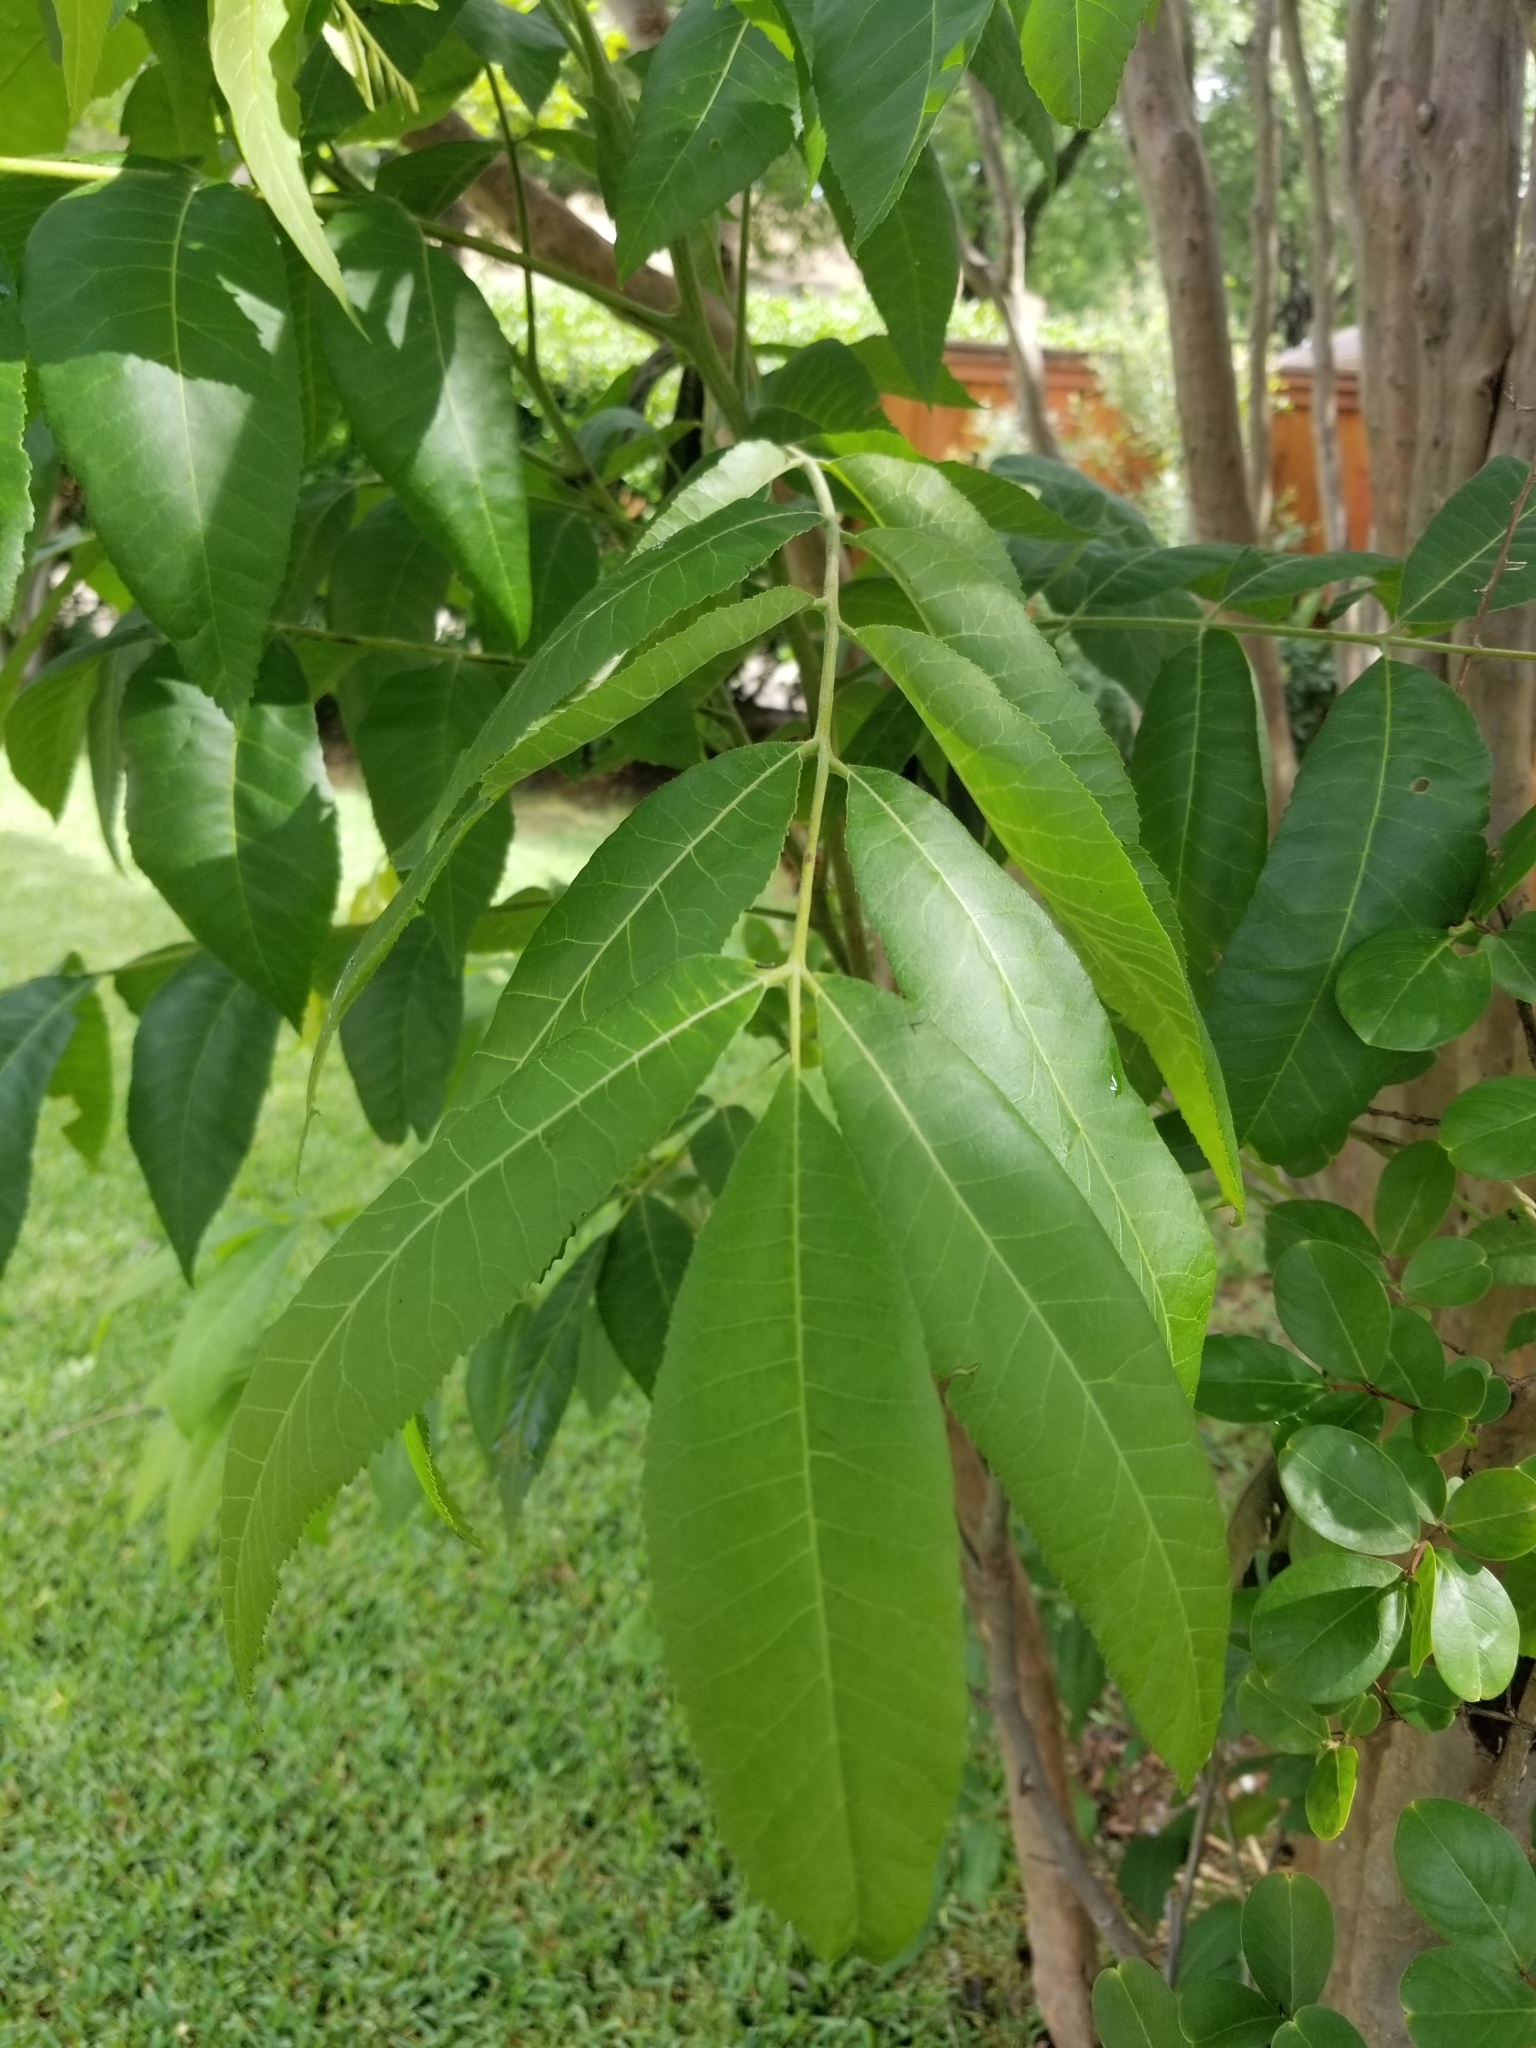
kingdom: Plantae
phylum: Tracheophyta
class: Magnoliopsida
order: Fagales
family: Juglandaceae
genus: Carya
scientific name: Carya illinoinensis
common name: Pecan
